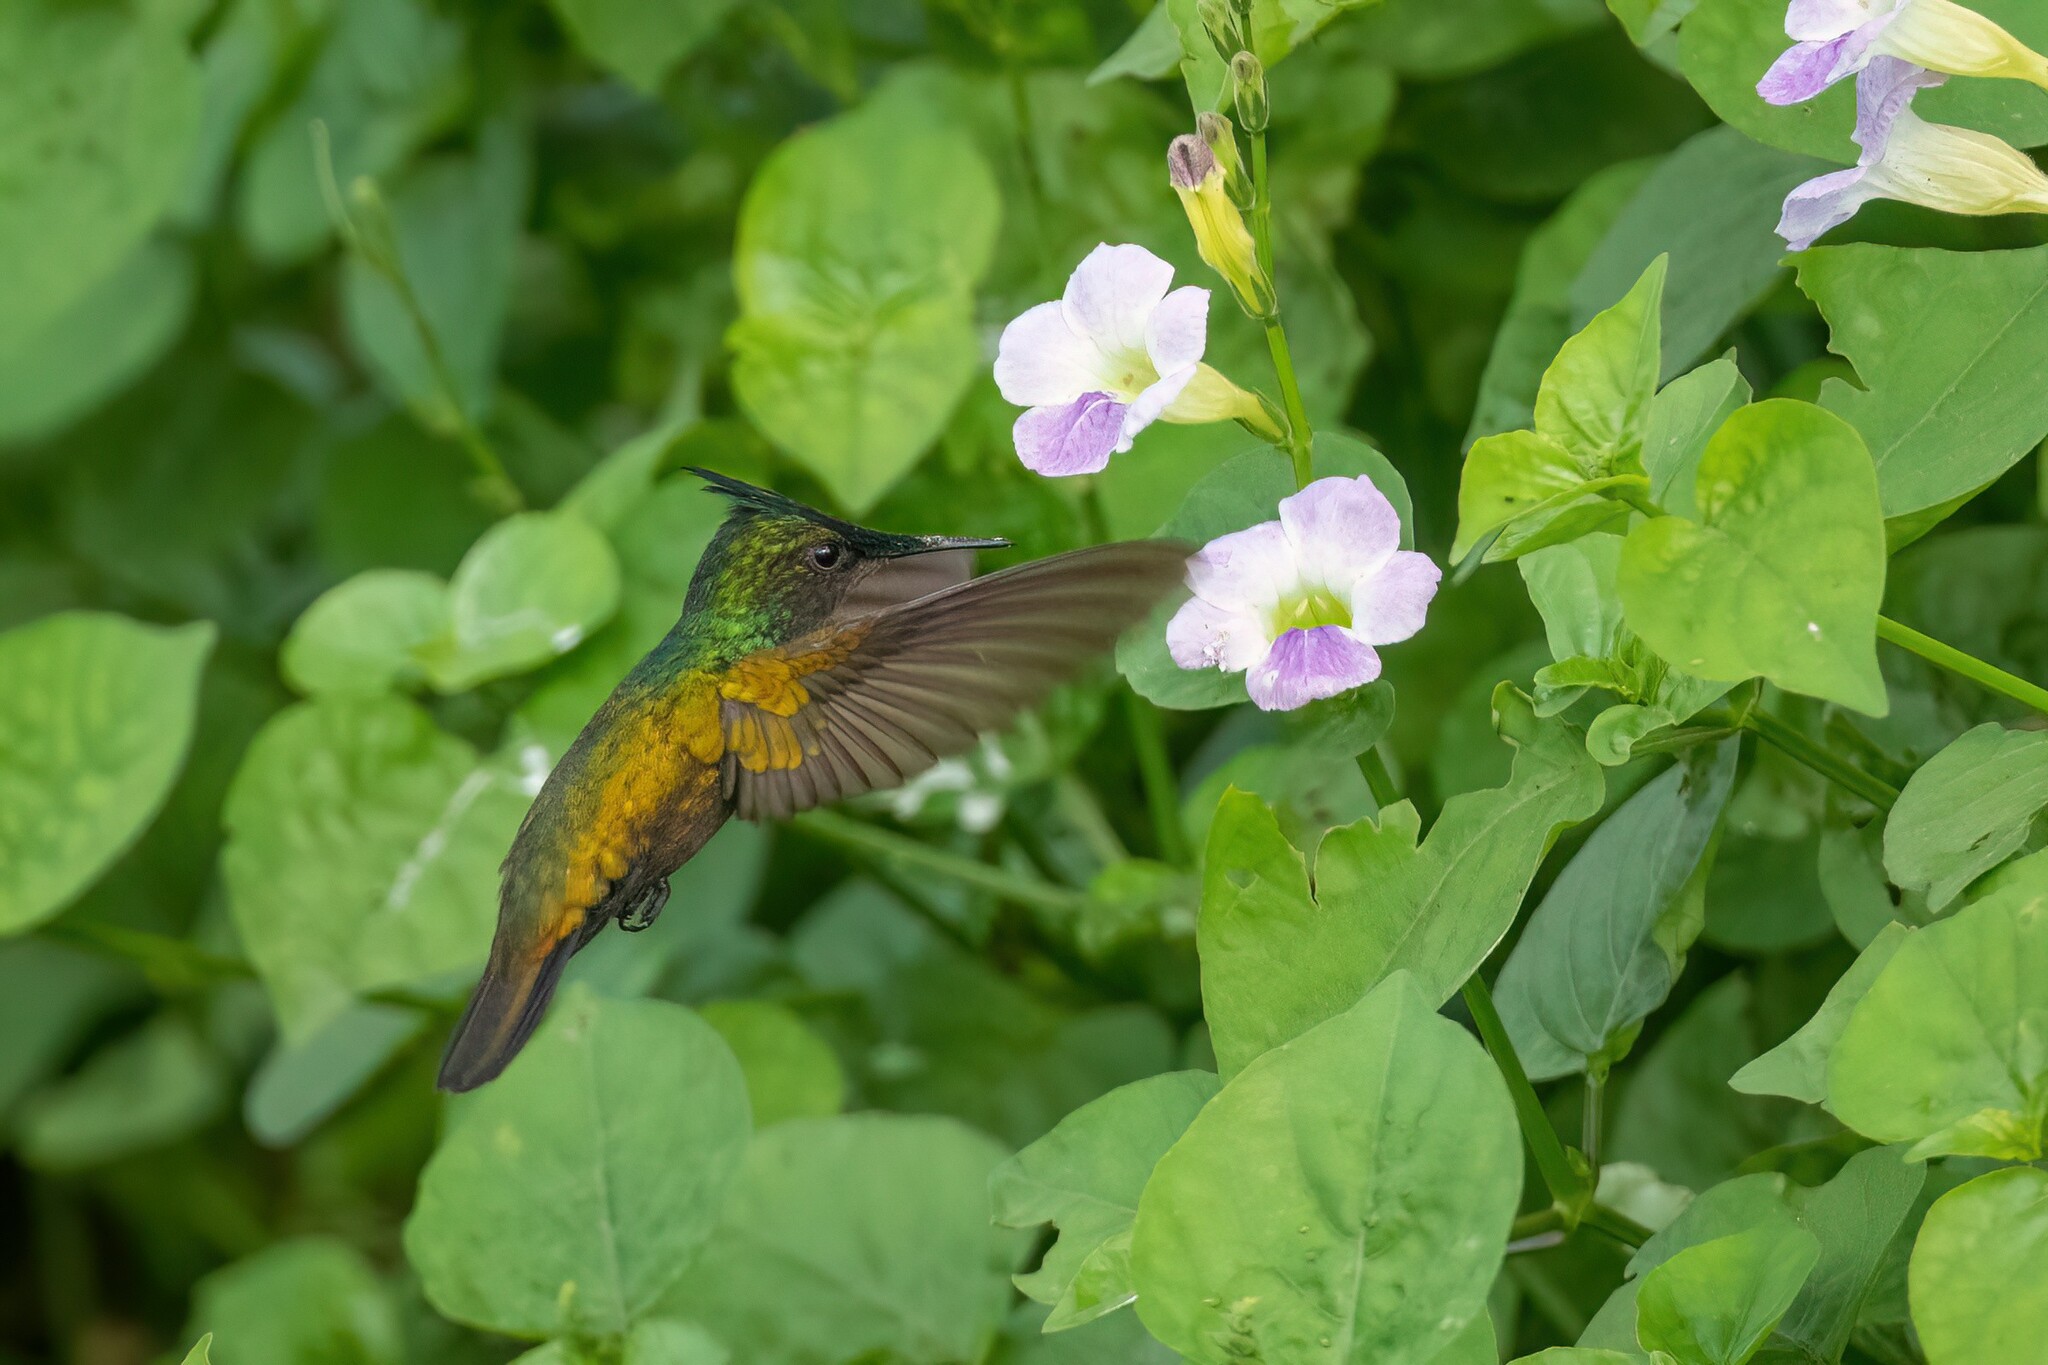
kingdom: Animalia
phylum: Chordata
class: Aves
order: Apodiformes
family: Trochilidae
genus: Orthorhyncus
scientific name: Orthorhyncus cristatus
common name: Antillean crested hummingbird
